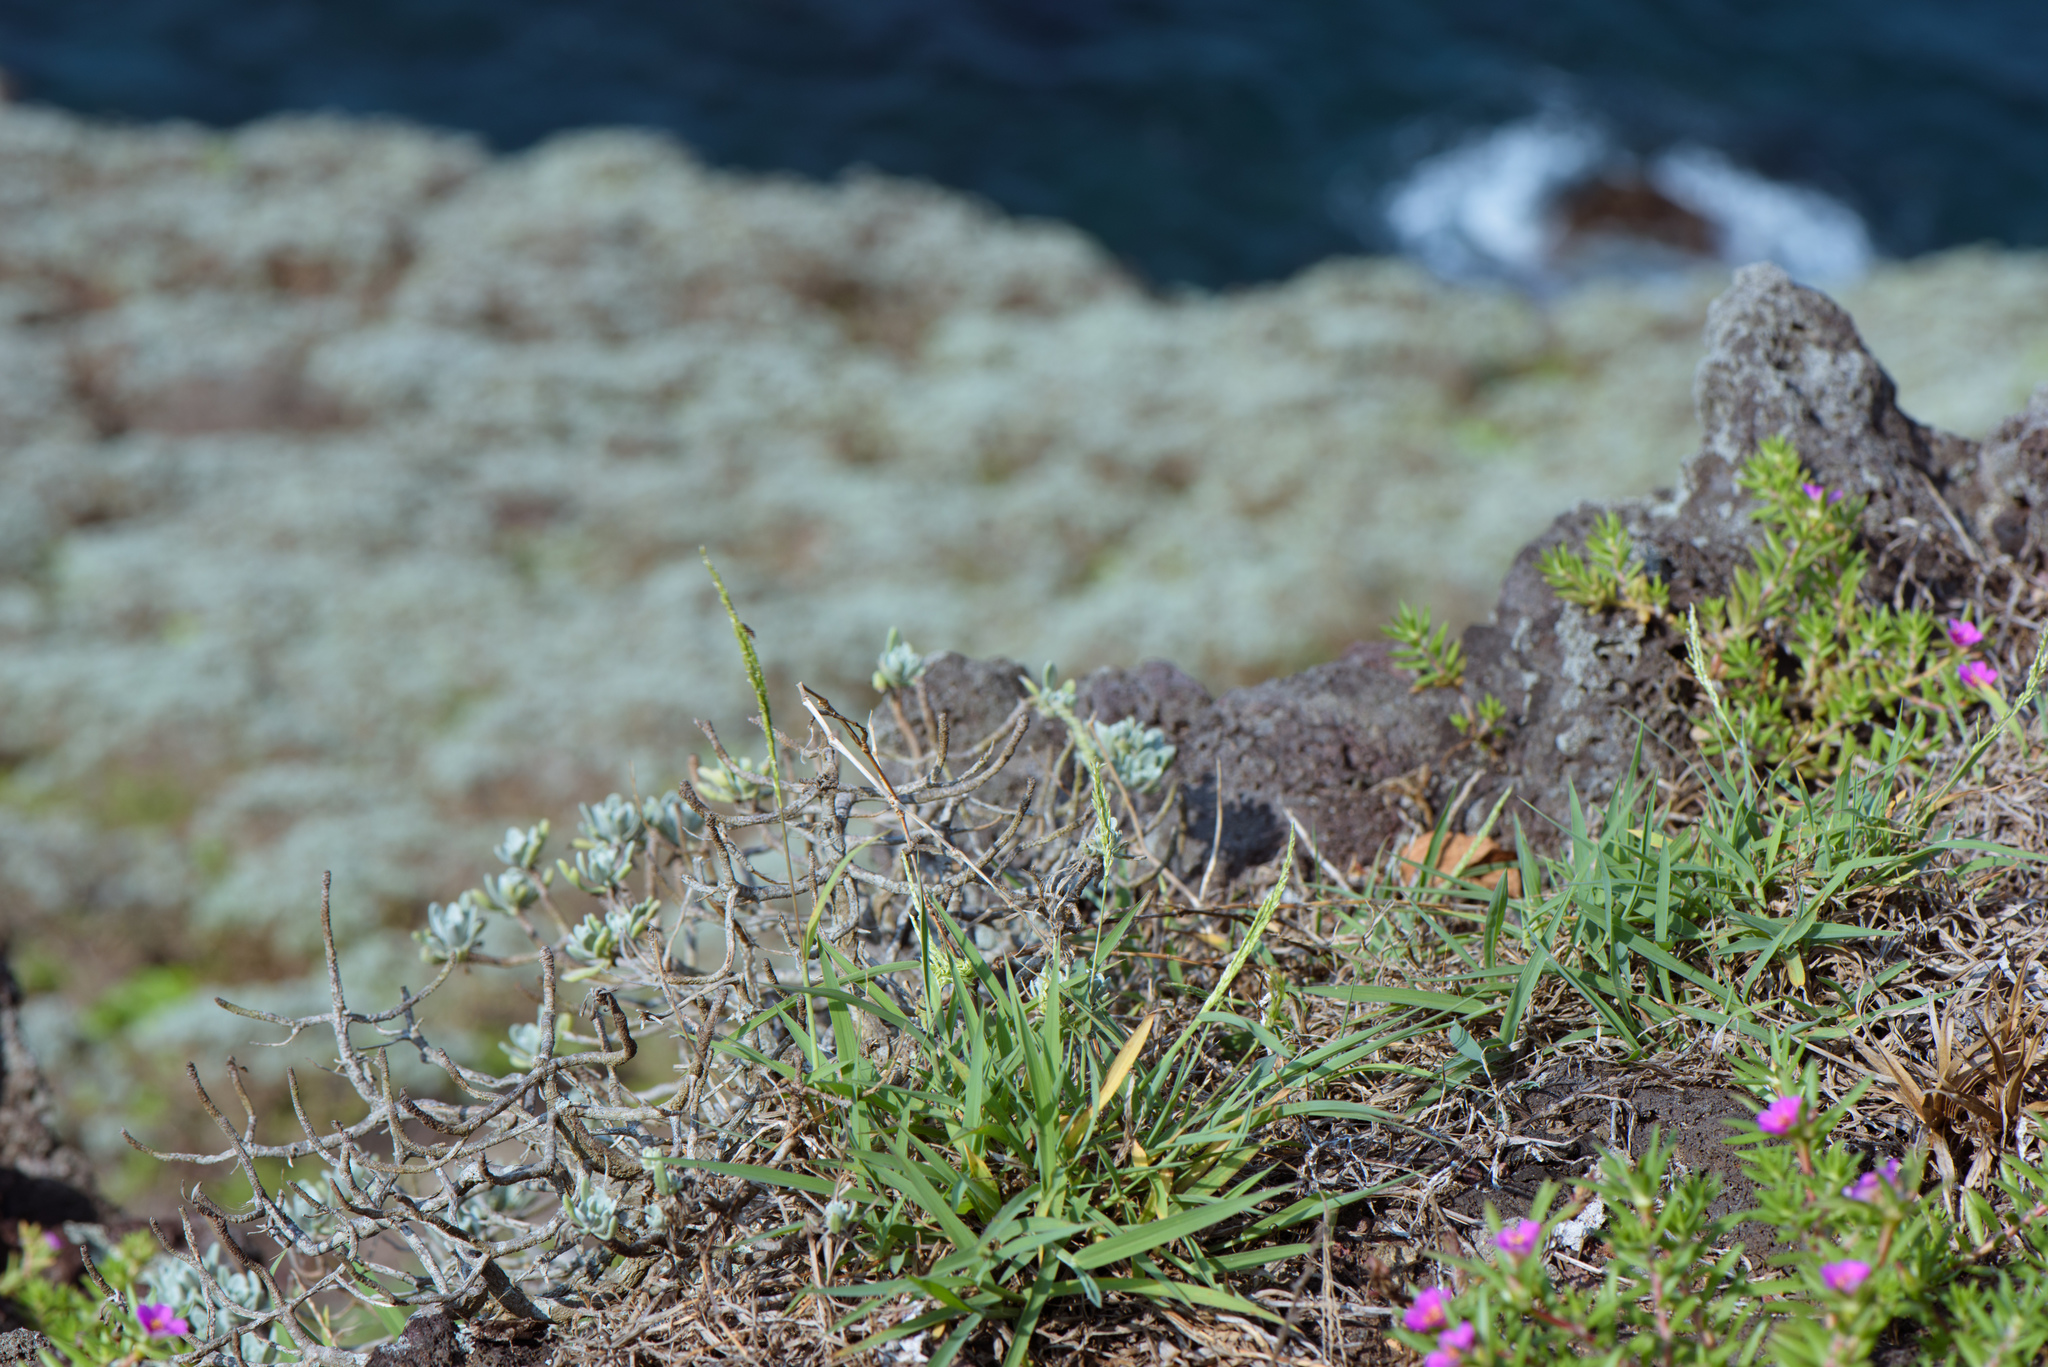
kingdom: Plantae
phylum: Tracheophyta
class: Liliopsida
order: Poales
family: Poaceae
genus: Digitaria
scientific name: Digitaria ciliaris
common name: Tropical finger-grass
